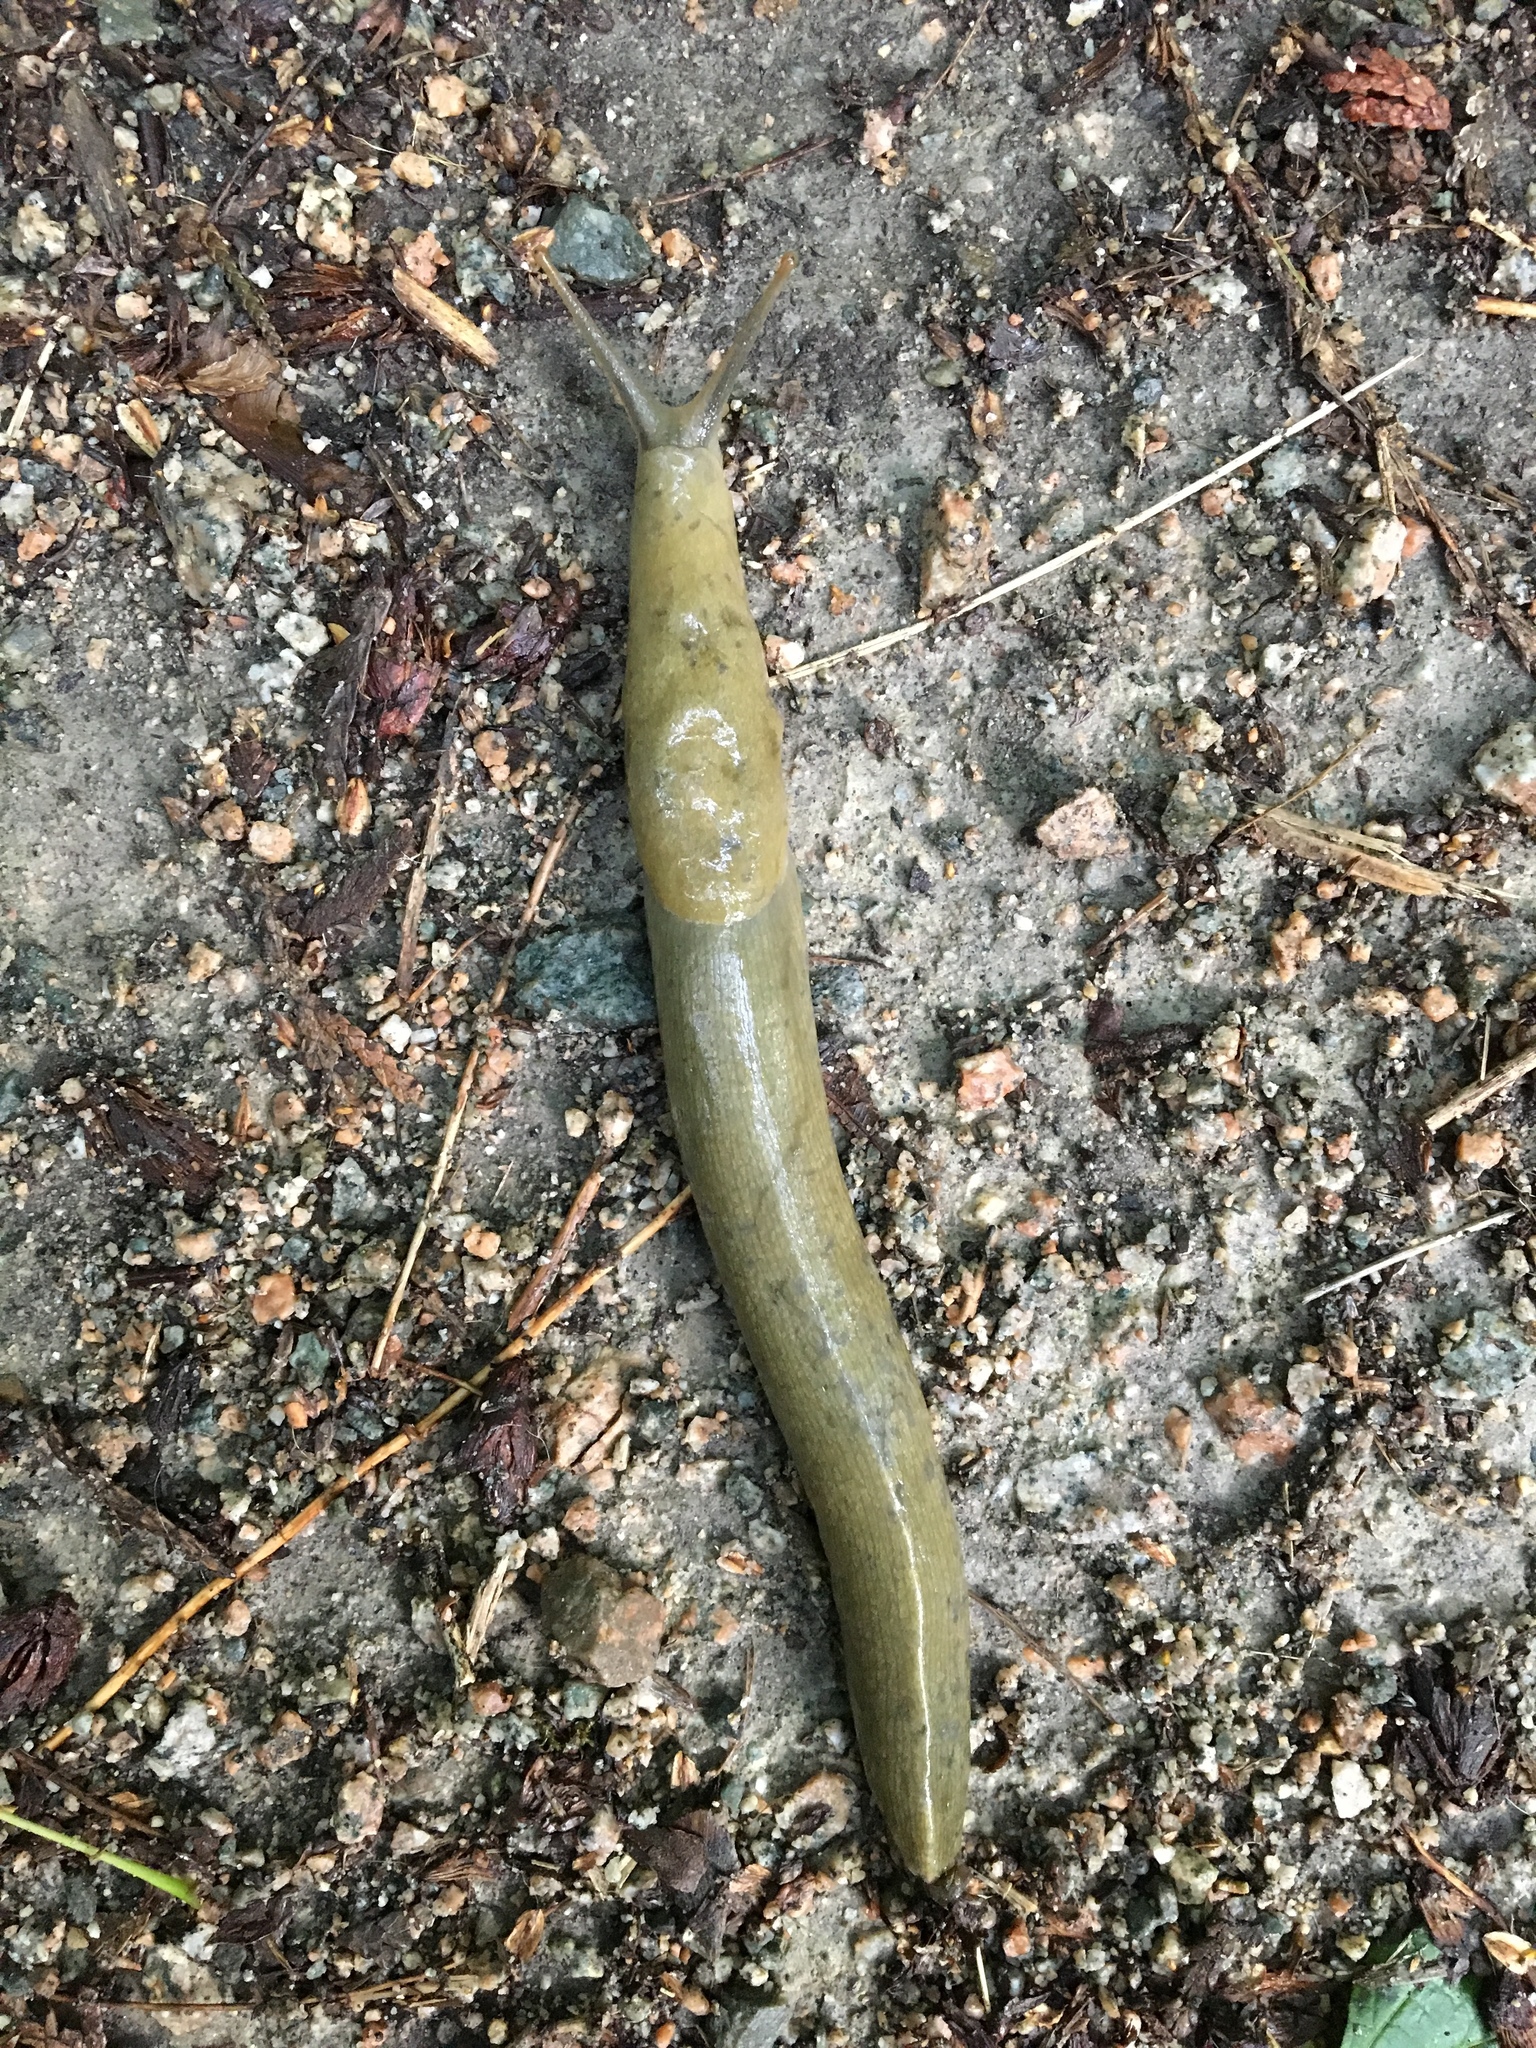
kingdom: Animalia
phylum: Mollusca
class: Gastropoda
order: Stylommatophora
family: Ariolimacidae
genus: Ariolimax
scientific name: Ariolimax columbianus
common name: Pacific banana slug
